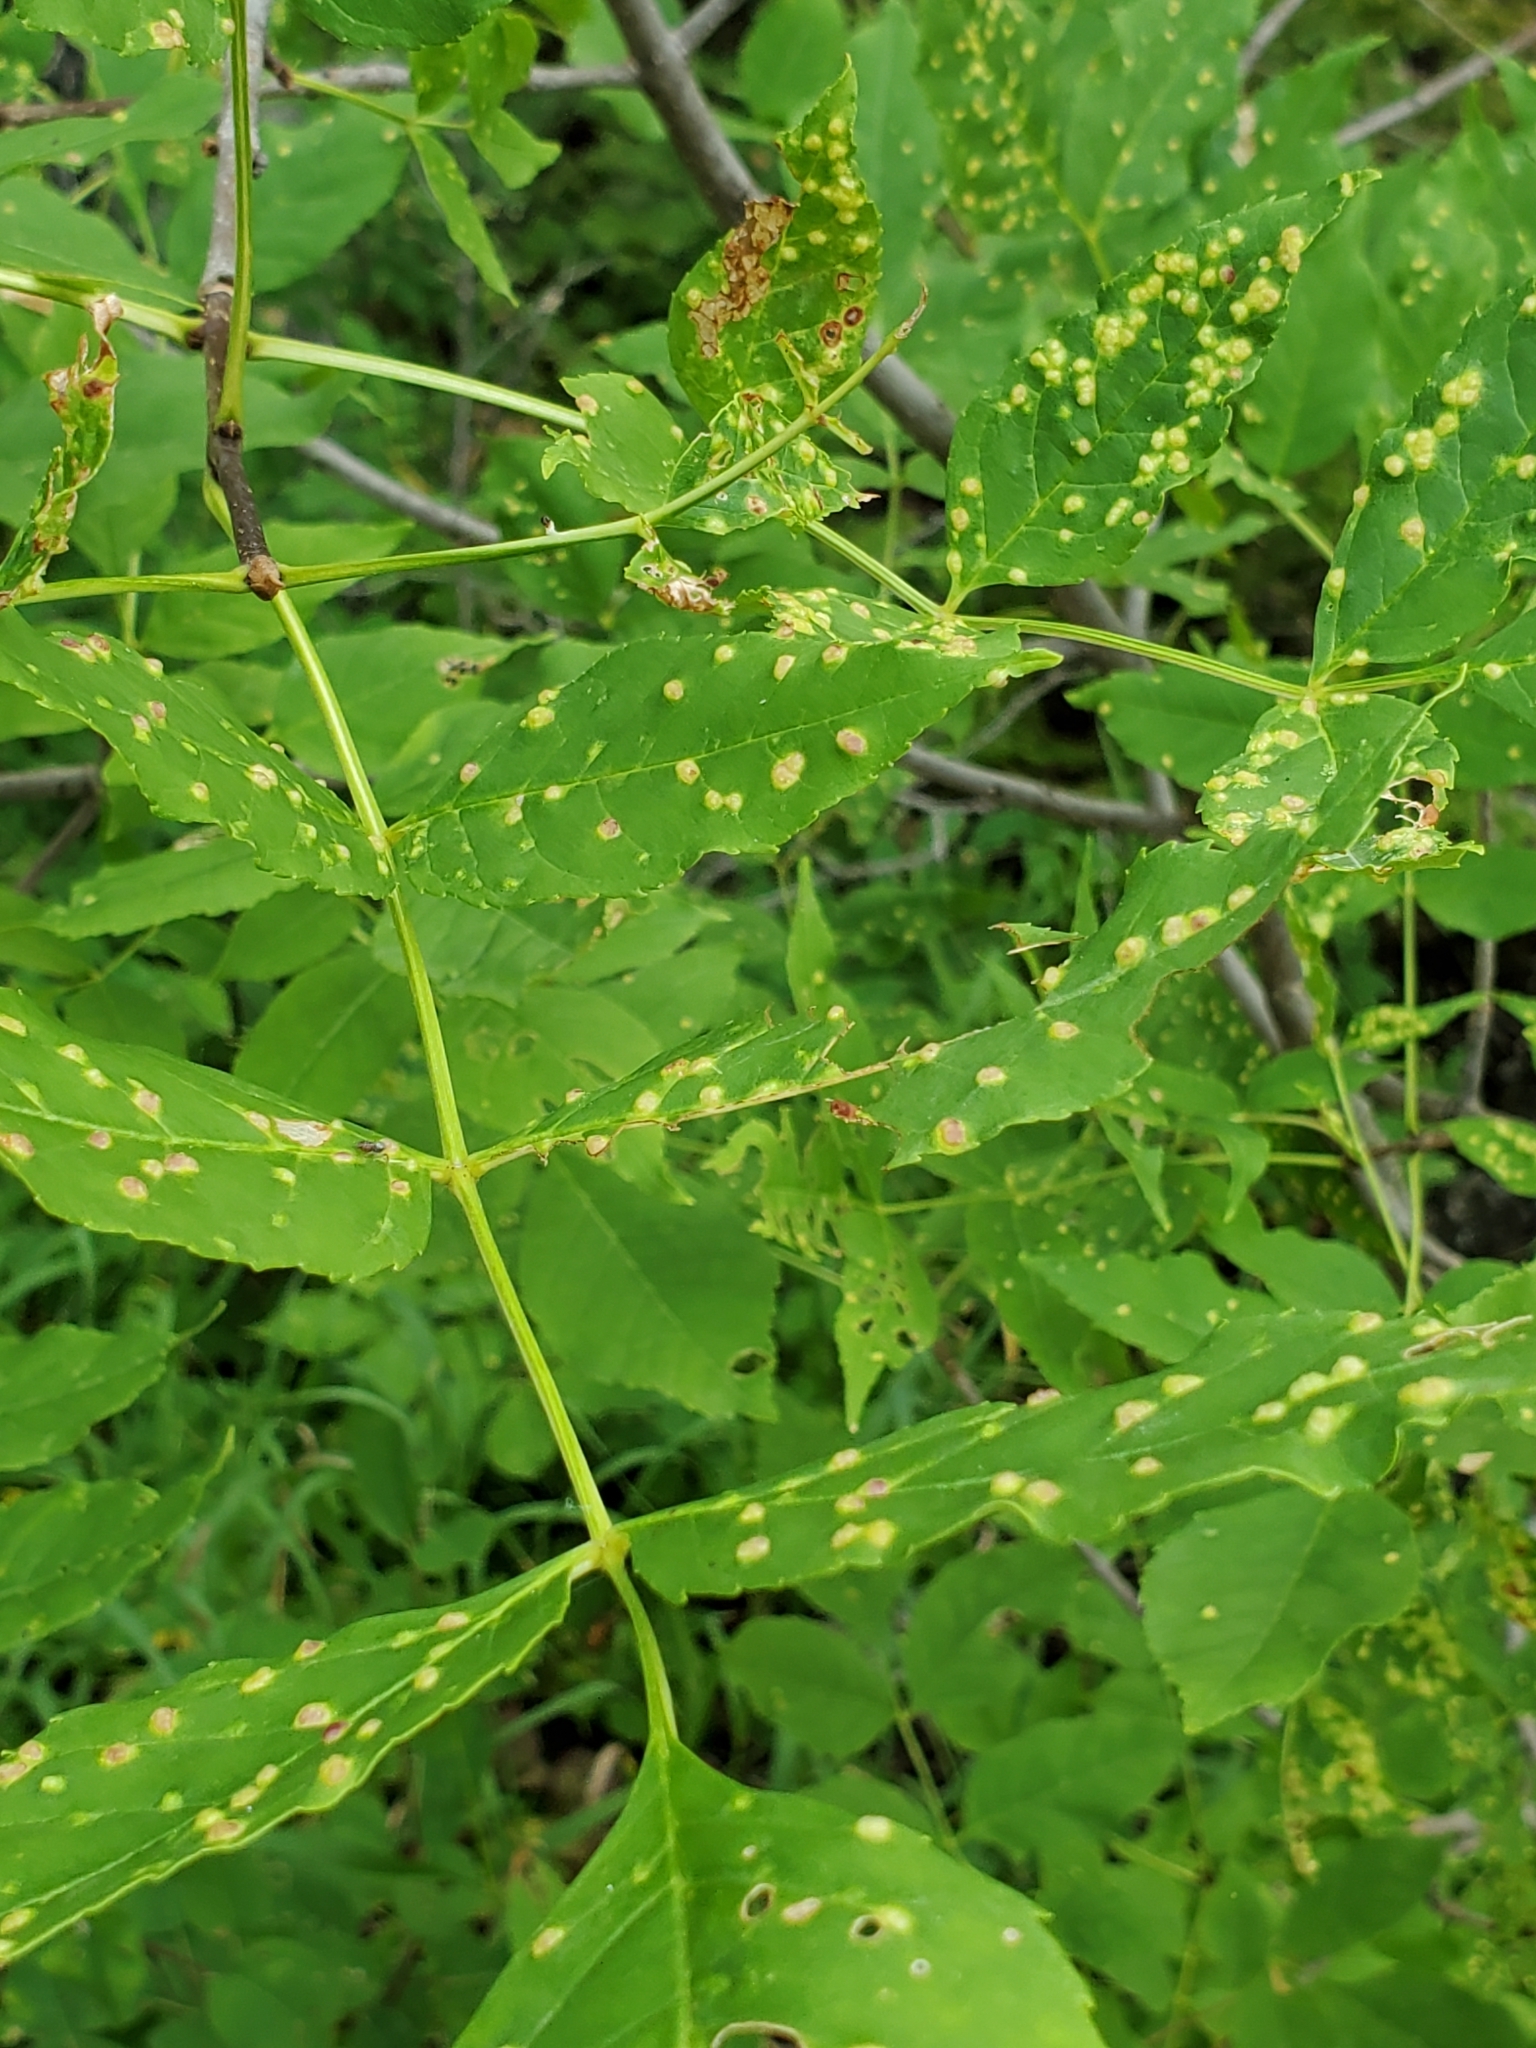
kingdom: Animalia
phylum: Arthropoda
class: Arachnida
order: Trombidiformes
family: Eriophyidae
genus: Aceria
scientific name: Aceria fraxinicola
